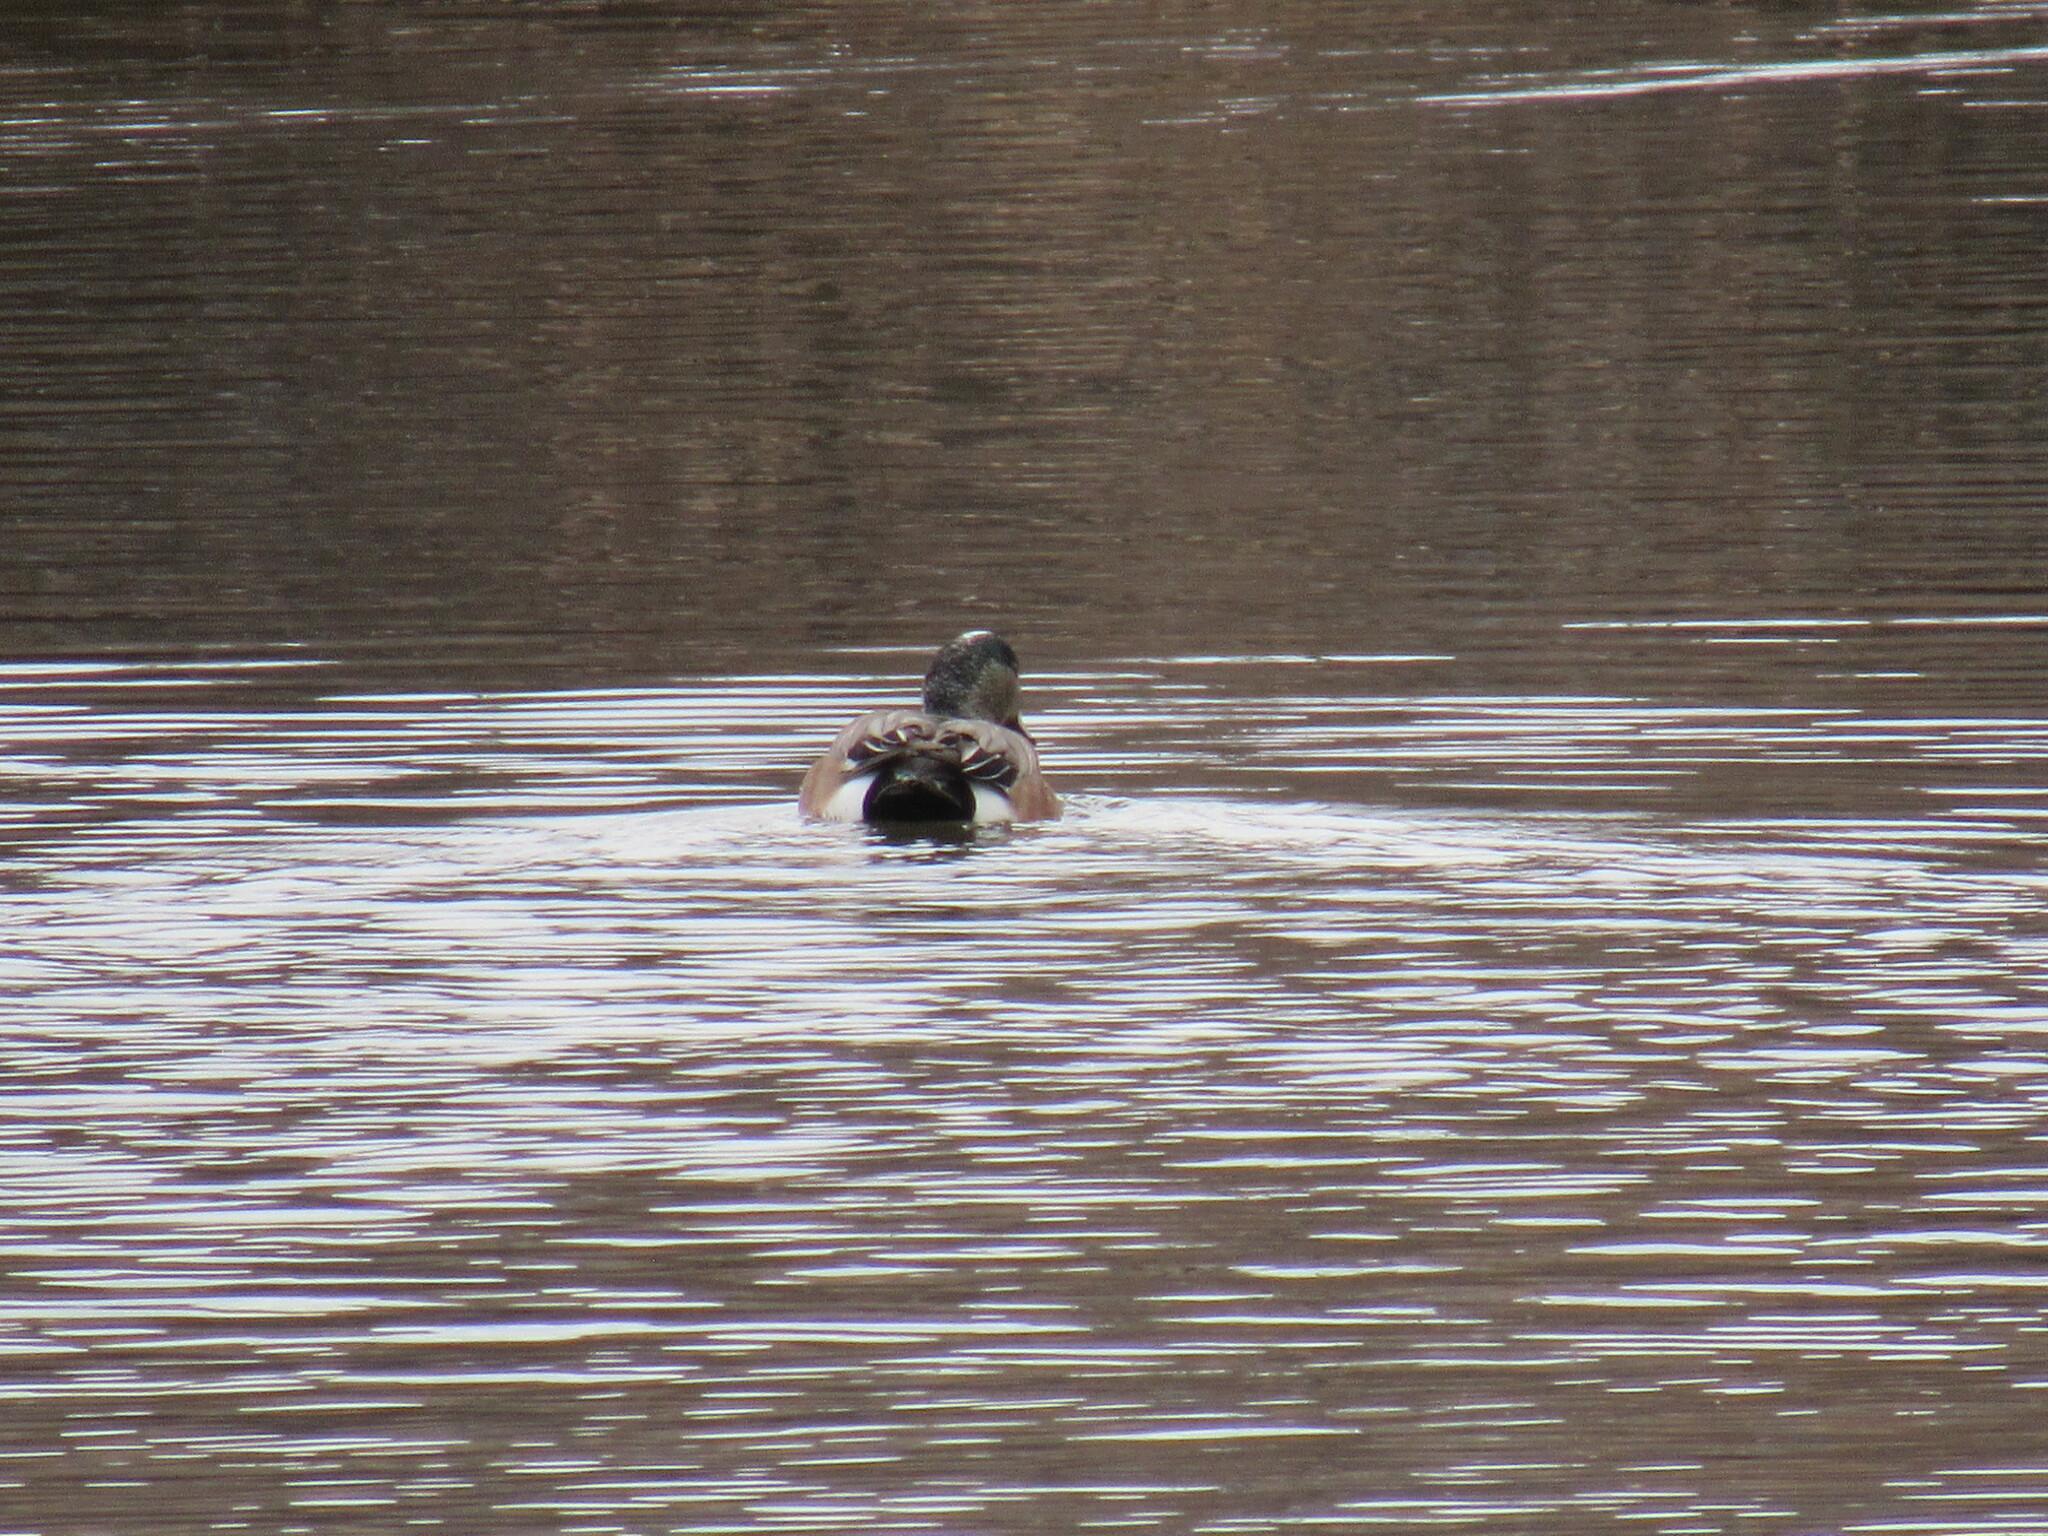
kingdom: Animalia
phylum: Chordata
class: Aves
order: Anseriformes
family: Anatidae
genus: Mareca
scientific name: Mareca americana
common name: American wigeon
